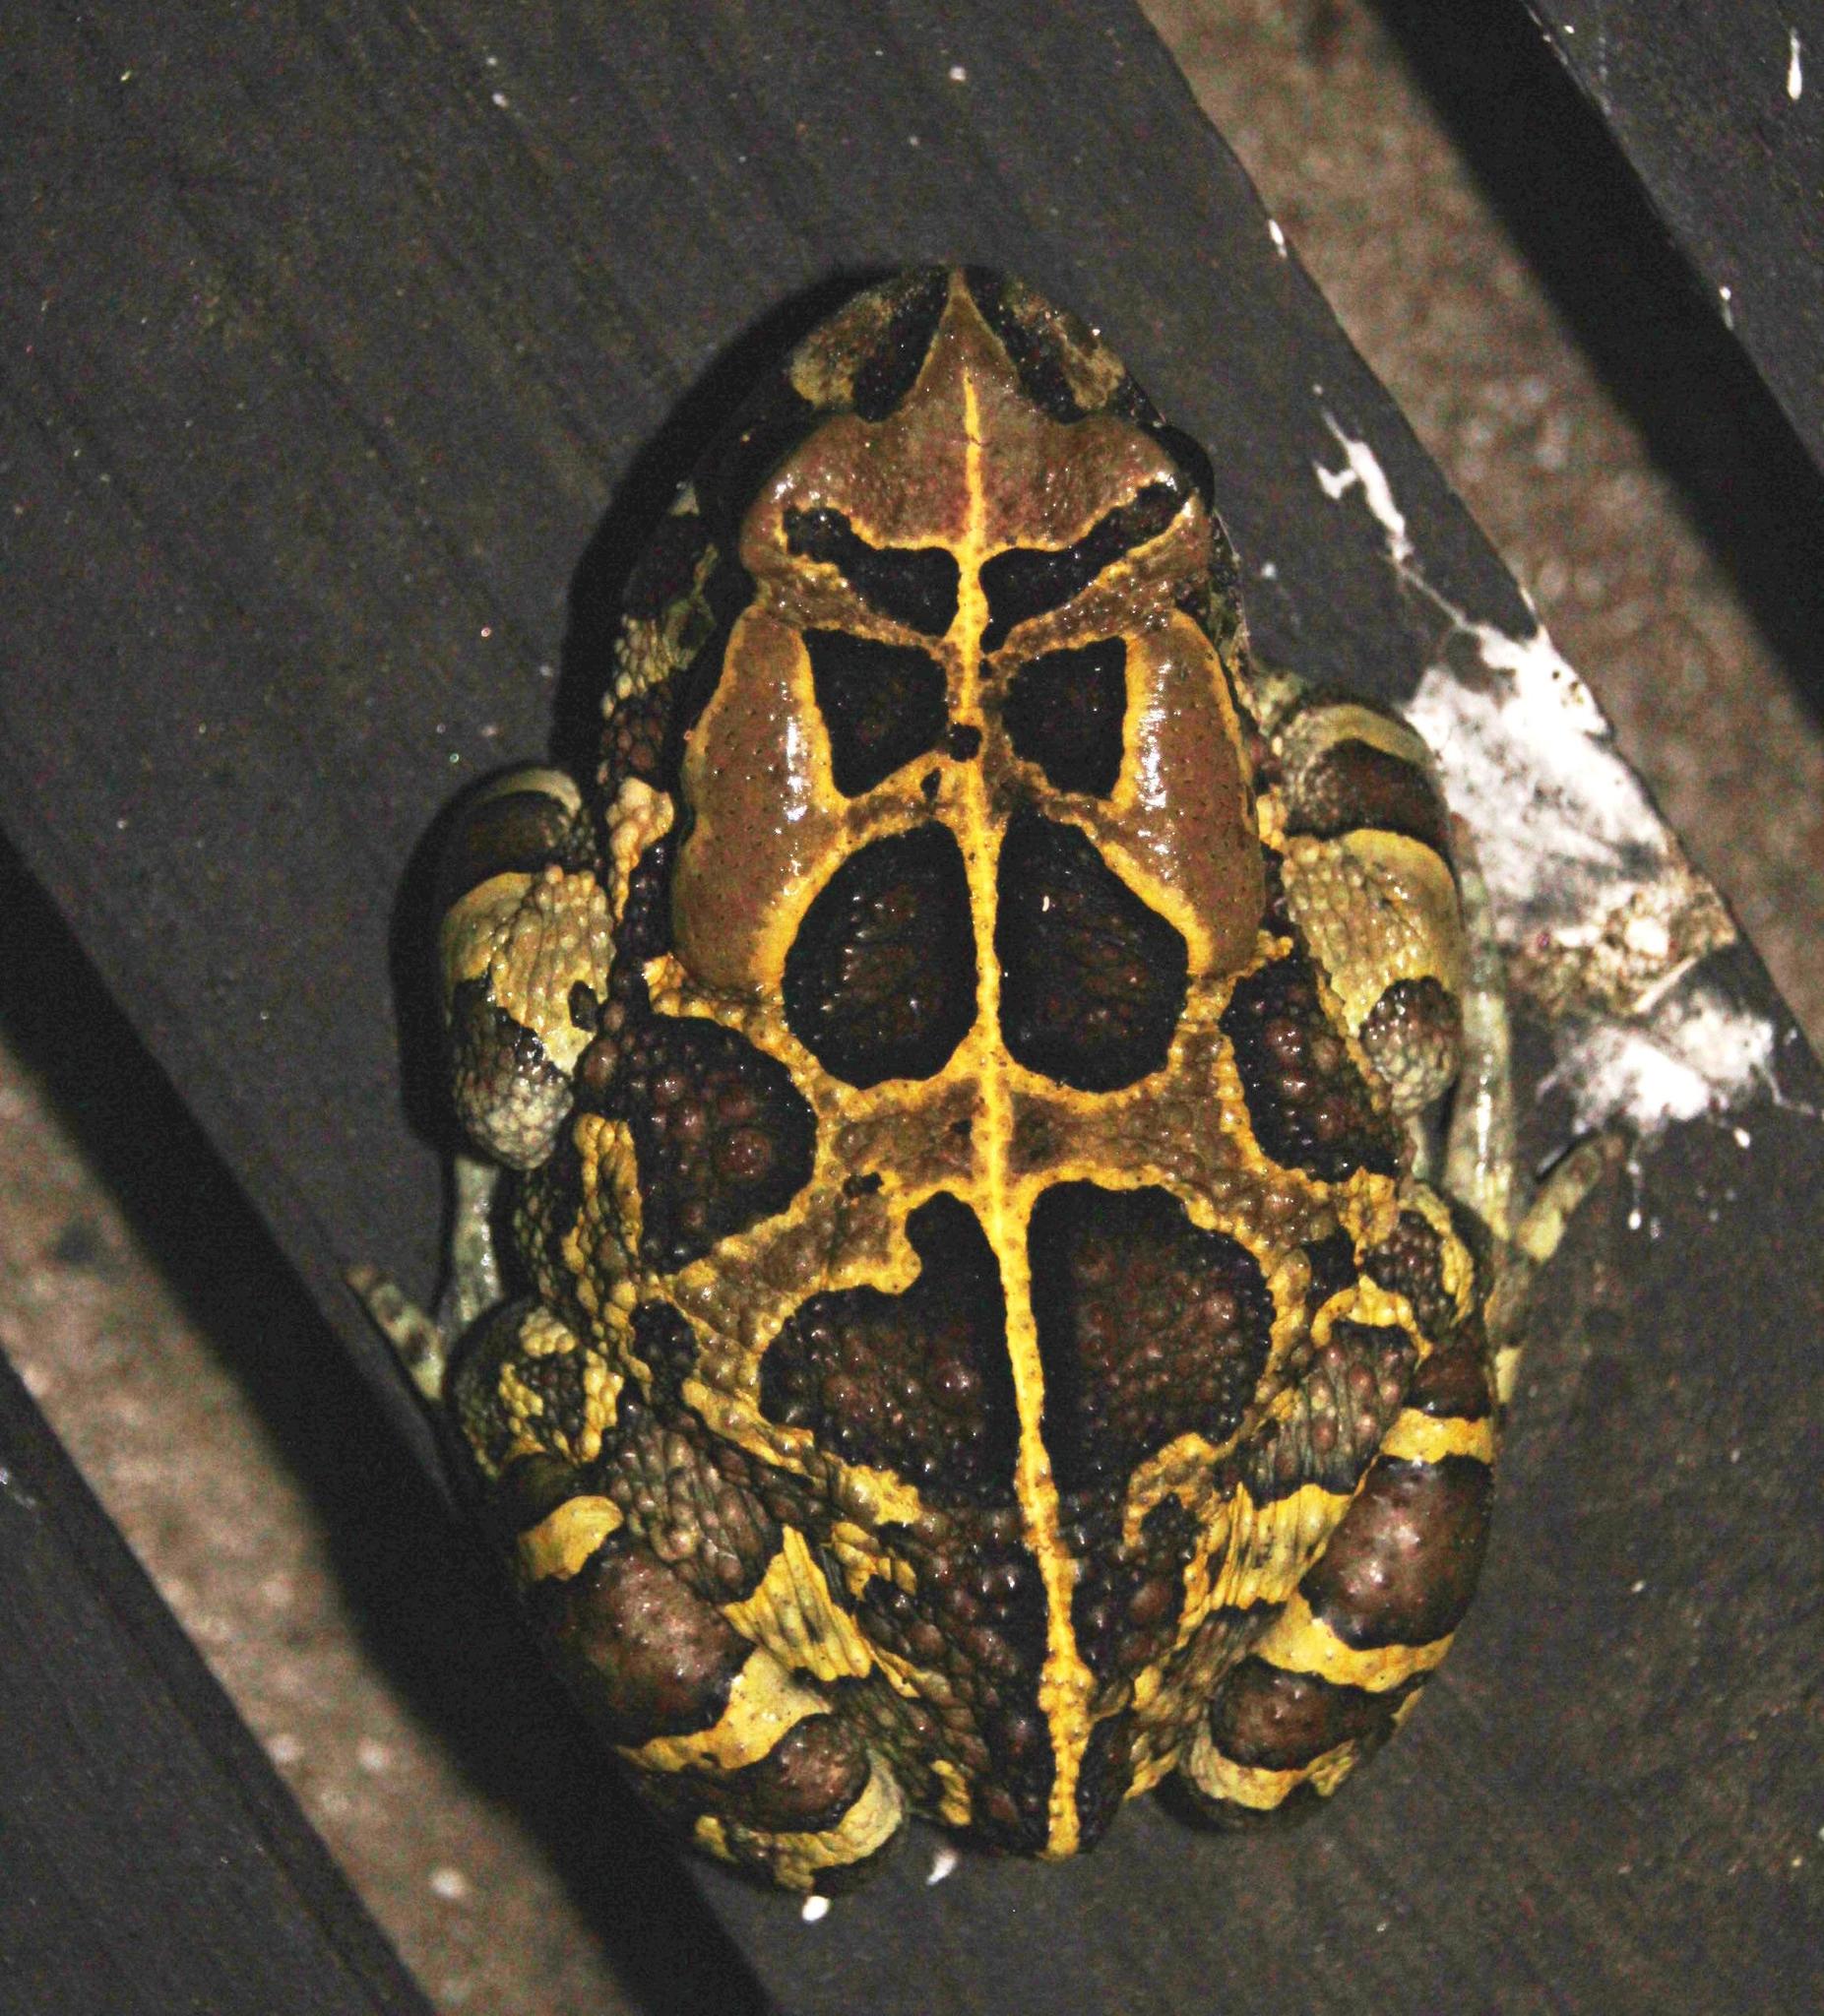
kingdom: Animalia
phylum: Chordata
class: Amphibia
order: Anura
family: Bufonidae
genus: Sclerophrys
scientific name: Sclerophrys pantherina
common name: Panther toad
